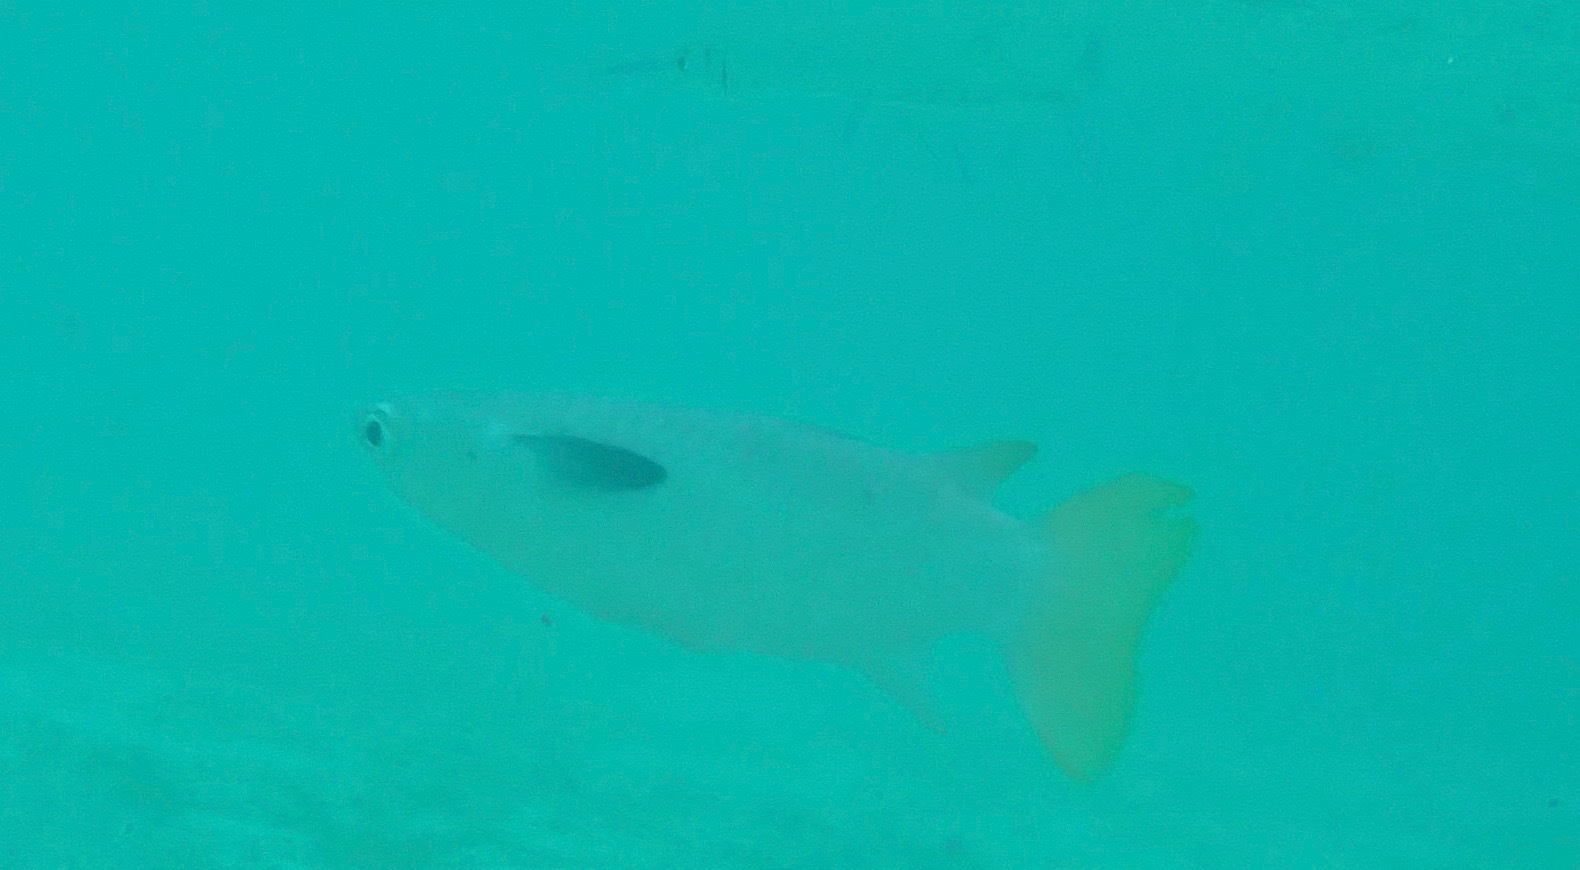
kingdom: Animalia
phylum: Chordata
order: Mugiliformes
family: Mugilidae
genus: Ellochelon
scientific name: Ellochelon vaigiensis
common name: Squaretail mullet
